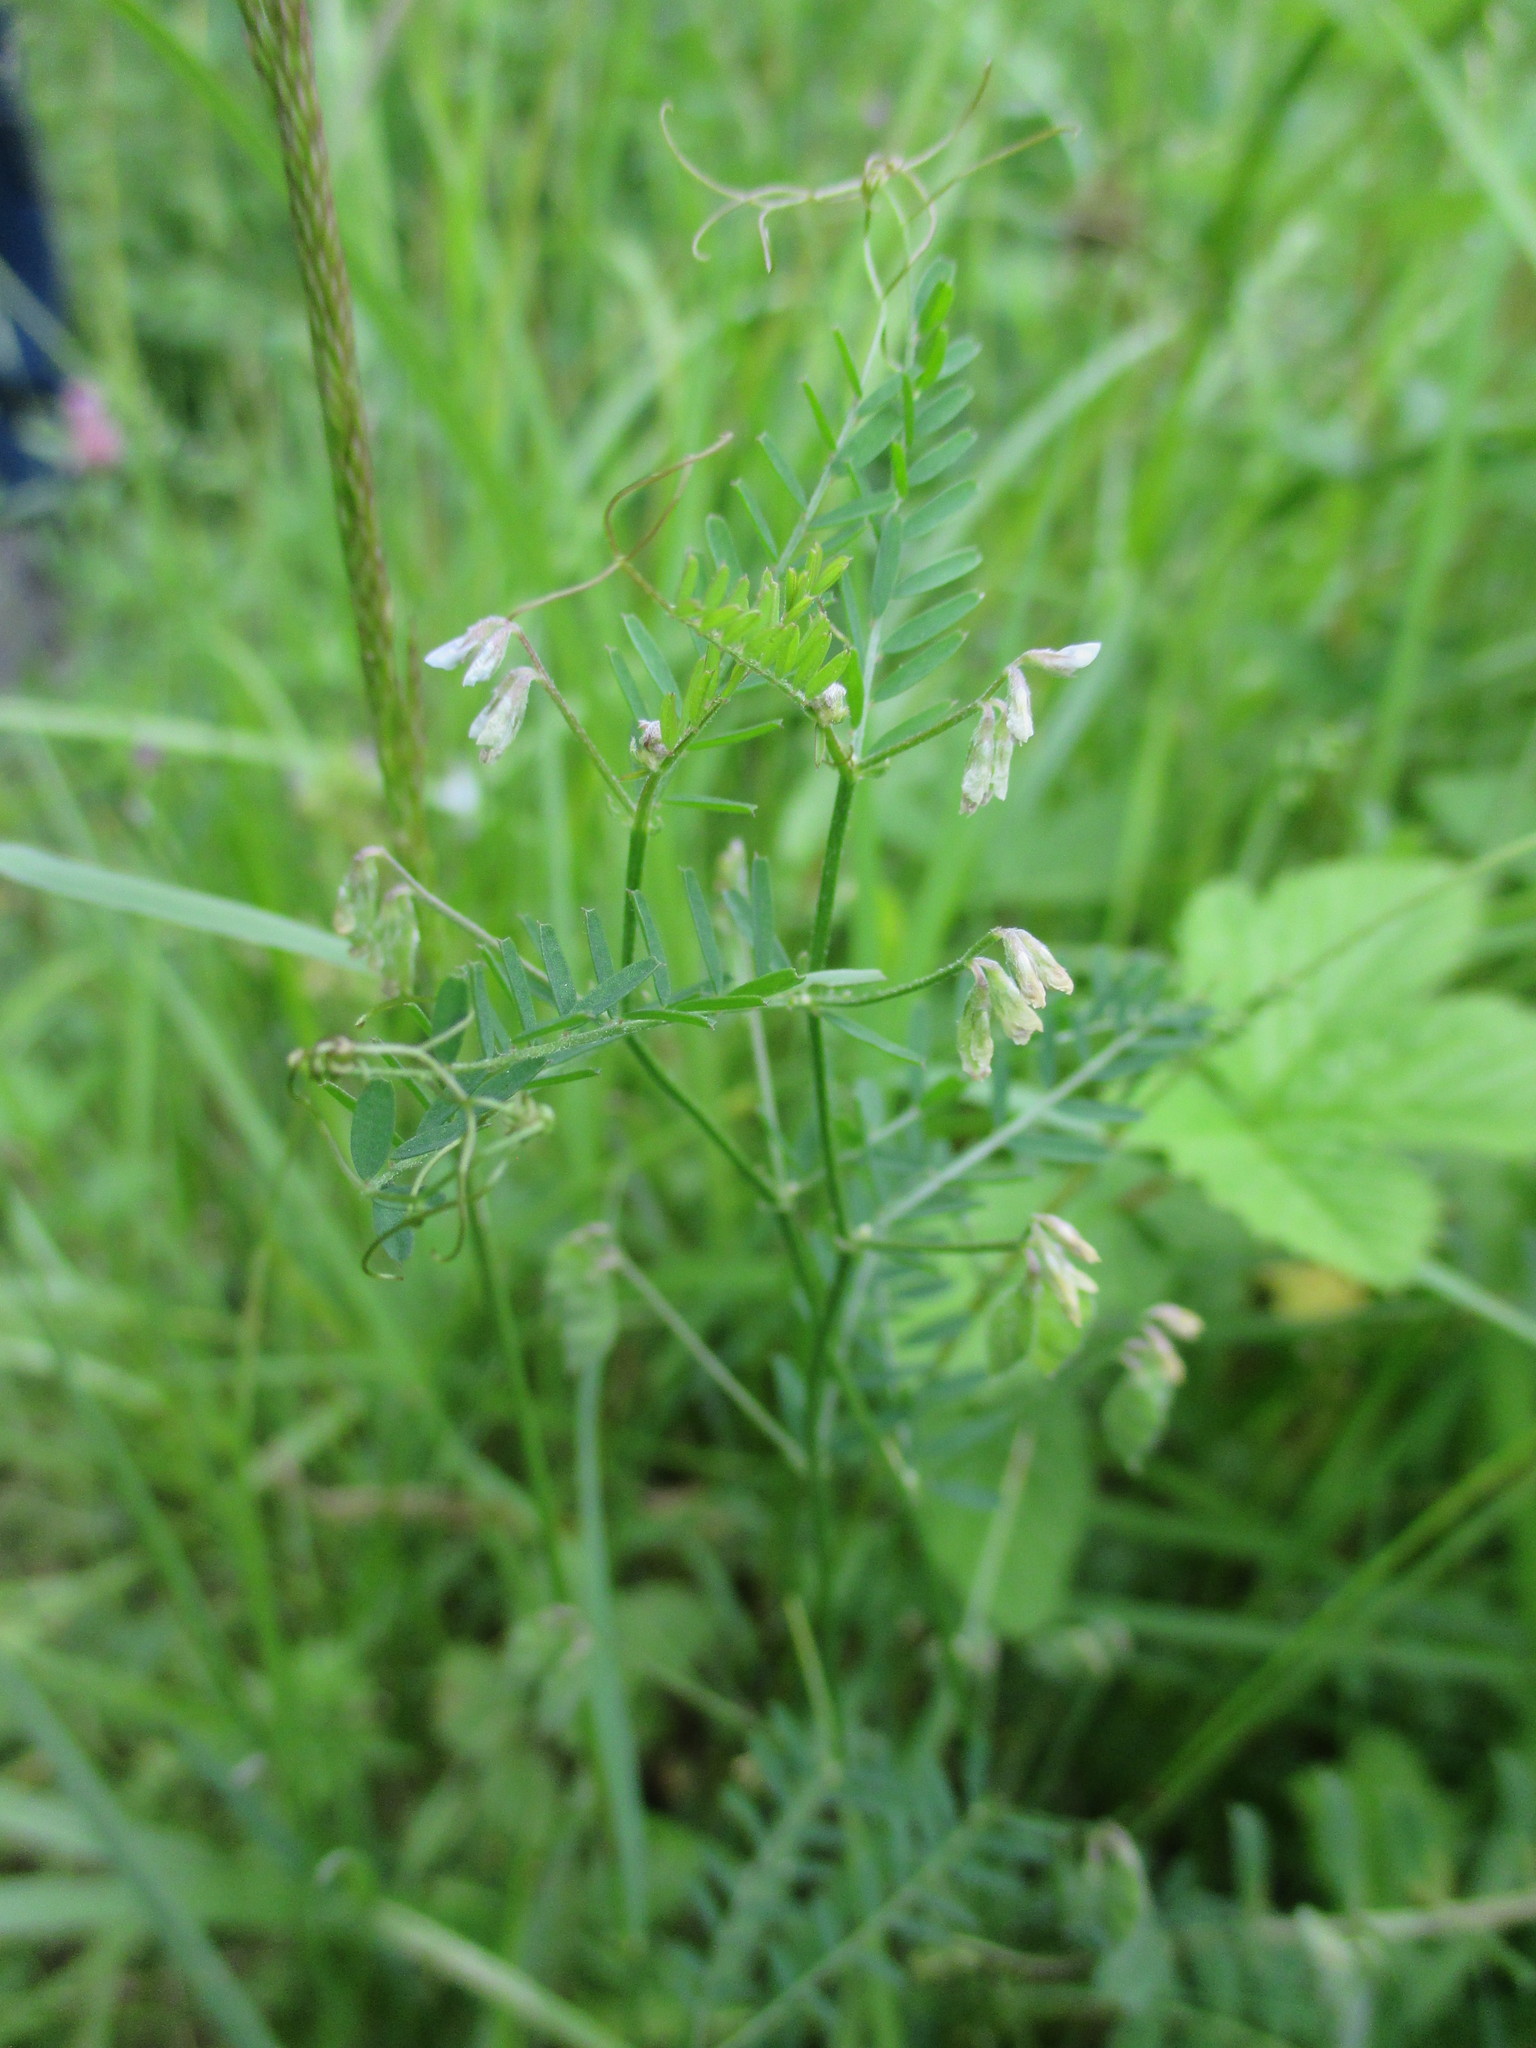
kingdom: Plantae
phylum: Tracheophyta
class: Magnoliopsida
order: Fabales
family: Fabaceae
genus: Vicia
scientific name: Vicia hirsuta
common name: Tiny vetch
